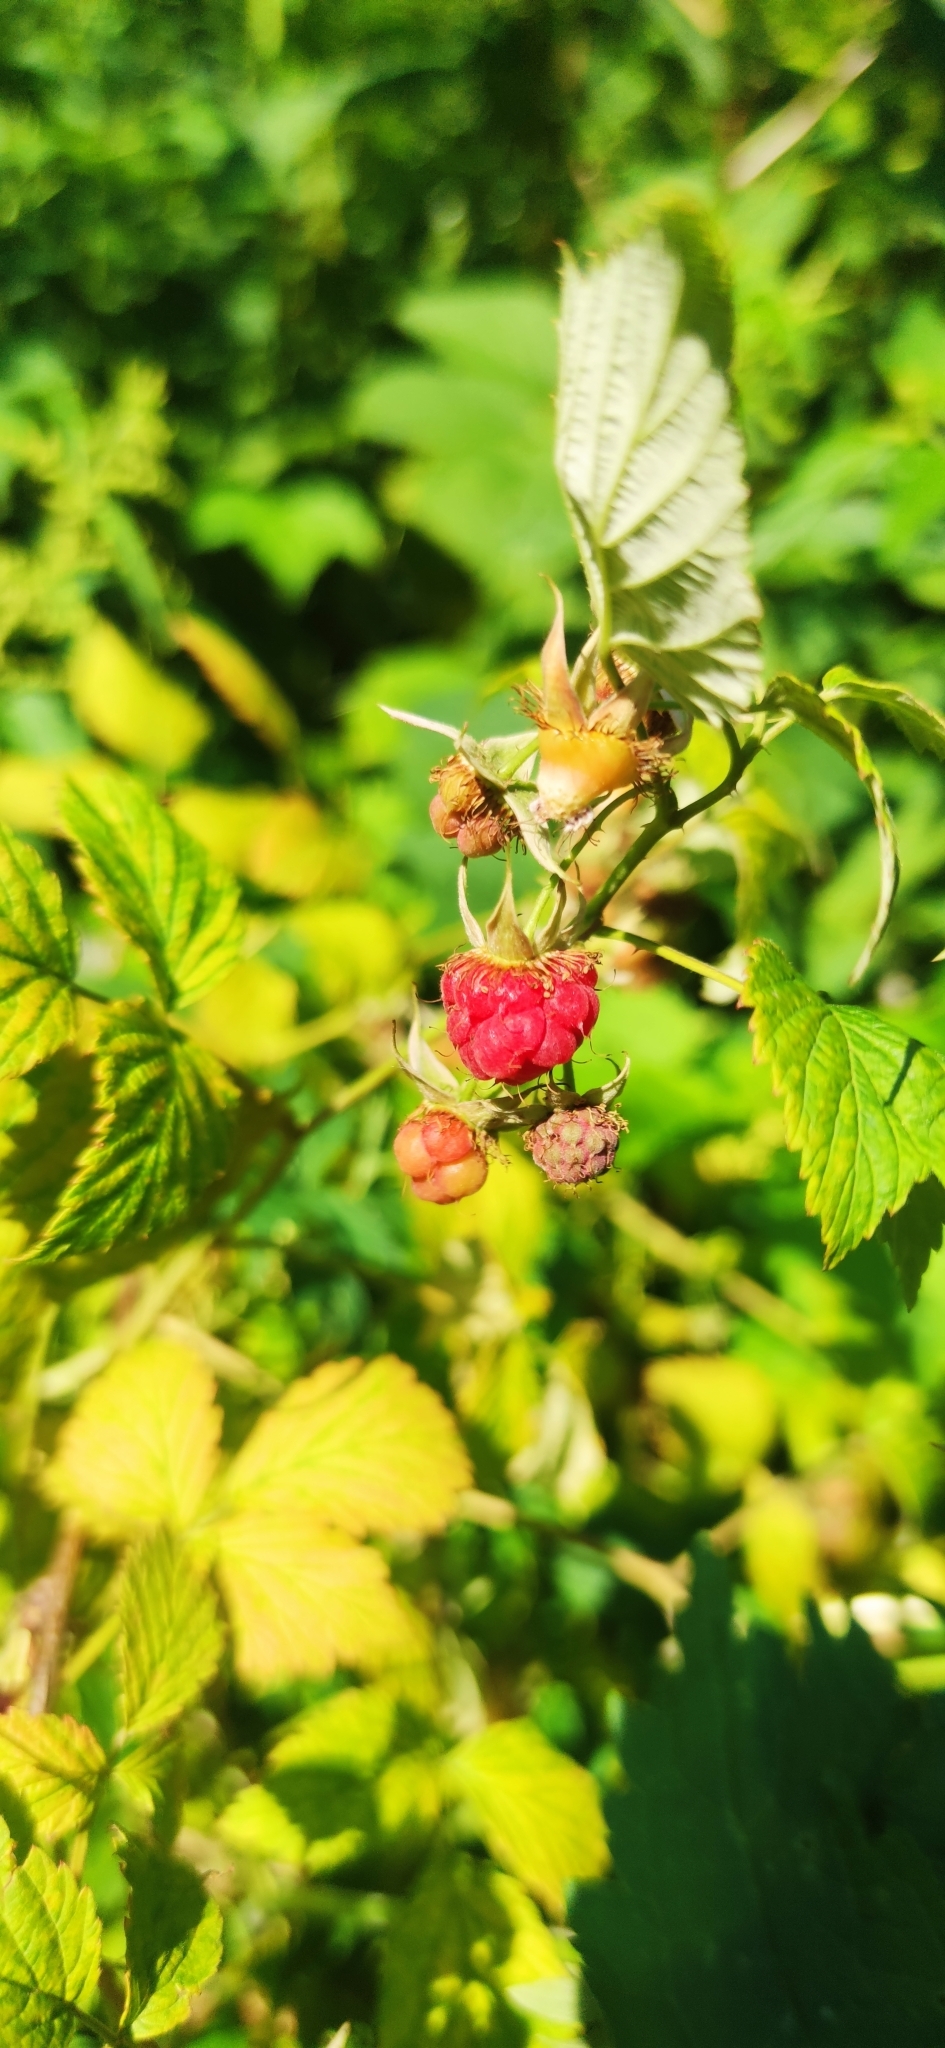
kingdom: Plantae
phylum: Tracheophyta
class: Magnoliopsida
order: Rosales
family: Rosaceae
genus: Rubus
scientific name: Rubus idaeus
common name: Raspberry
